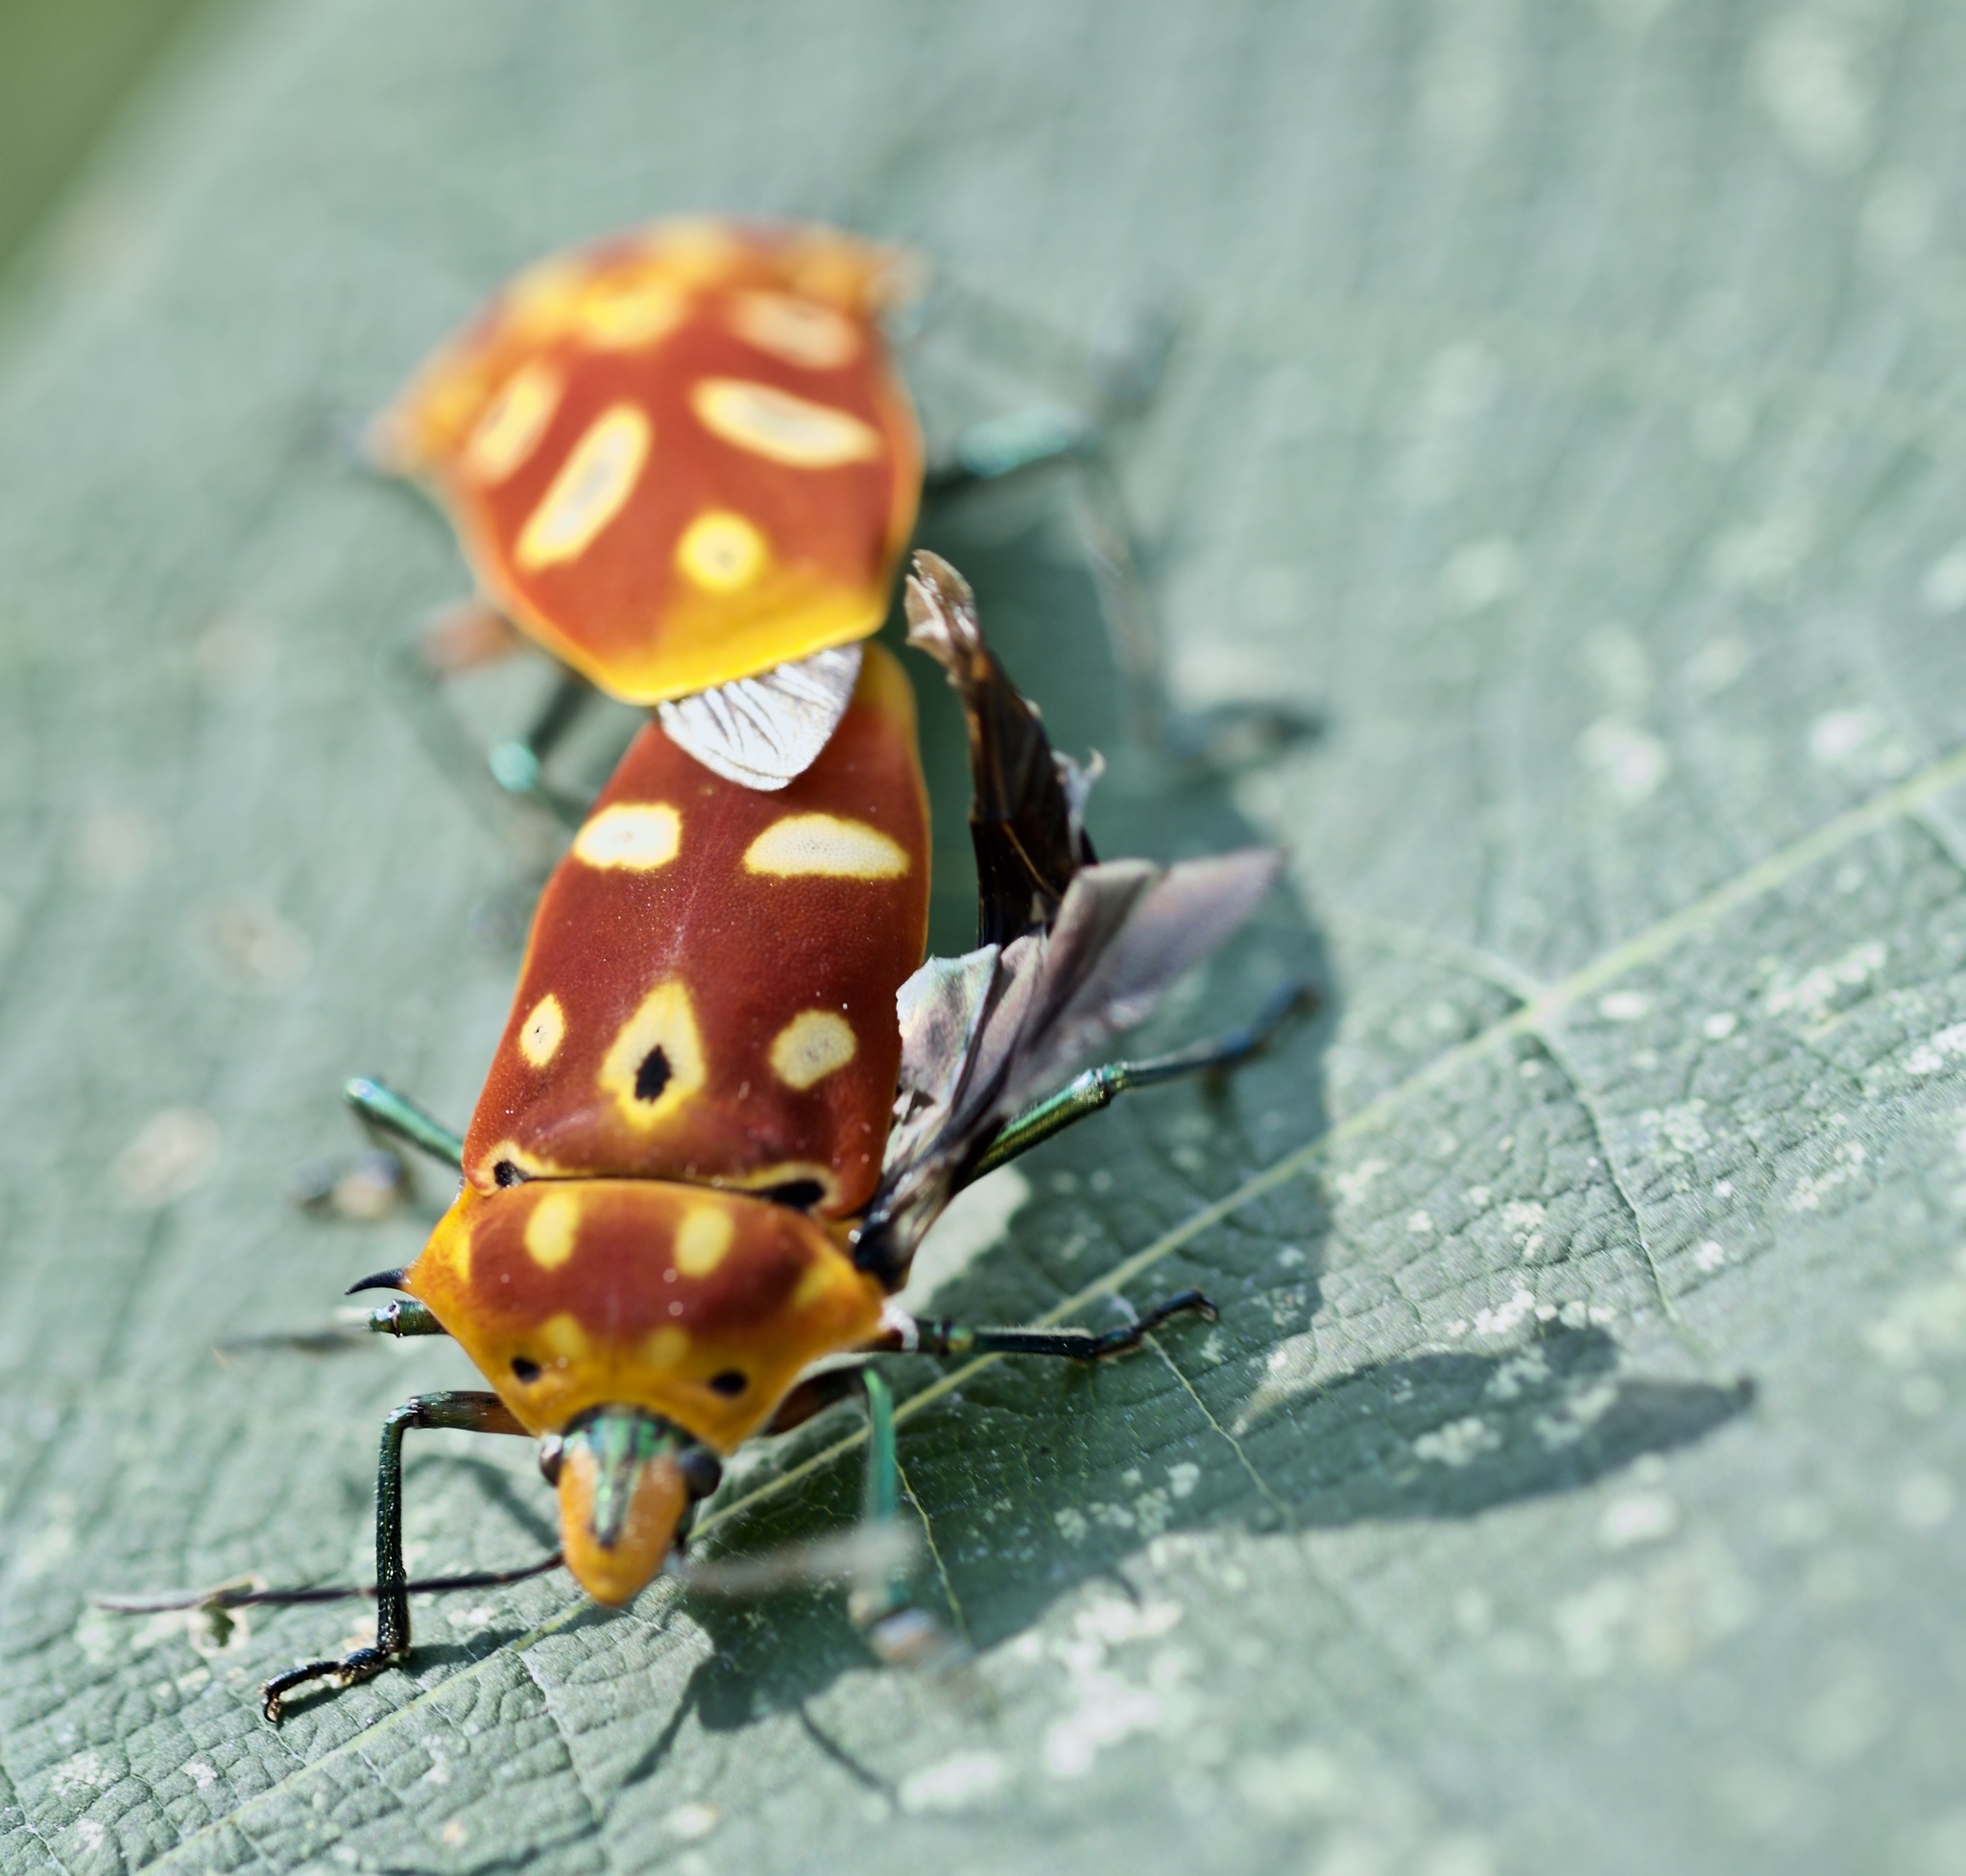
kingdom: Animalia
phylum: Arthropoda
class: Insecta
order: Hemiptera
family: Scutelleridae
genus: Cantao
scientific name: Cantao ocellatus
